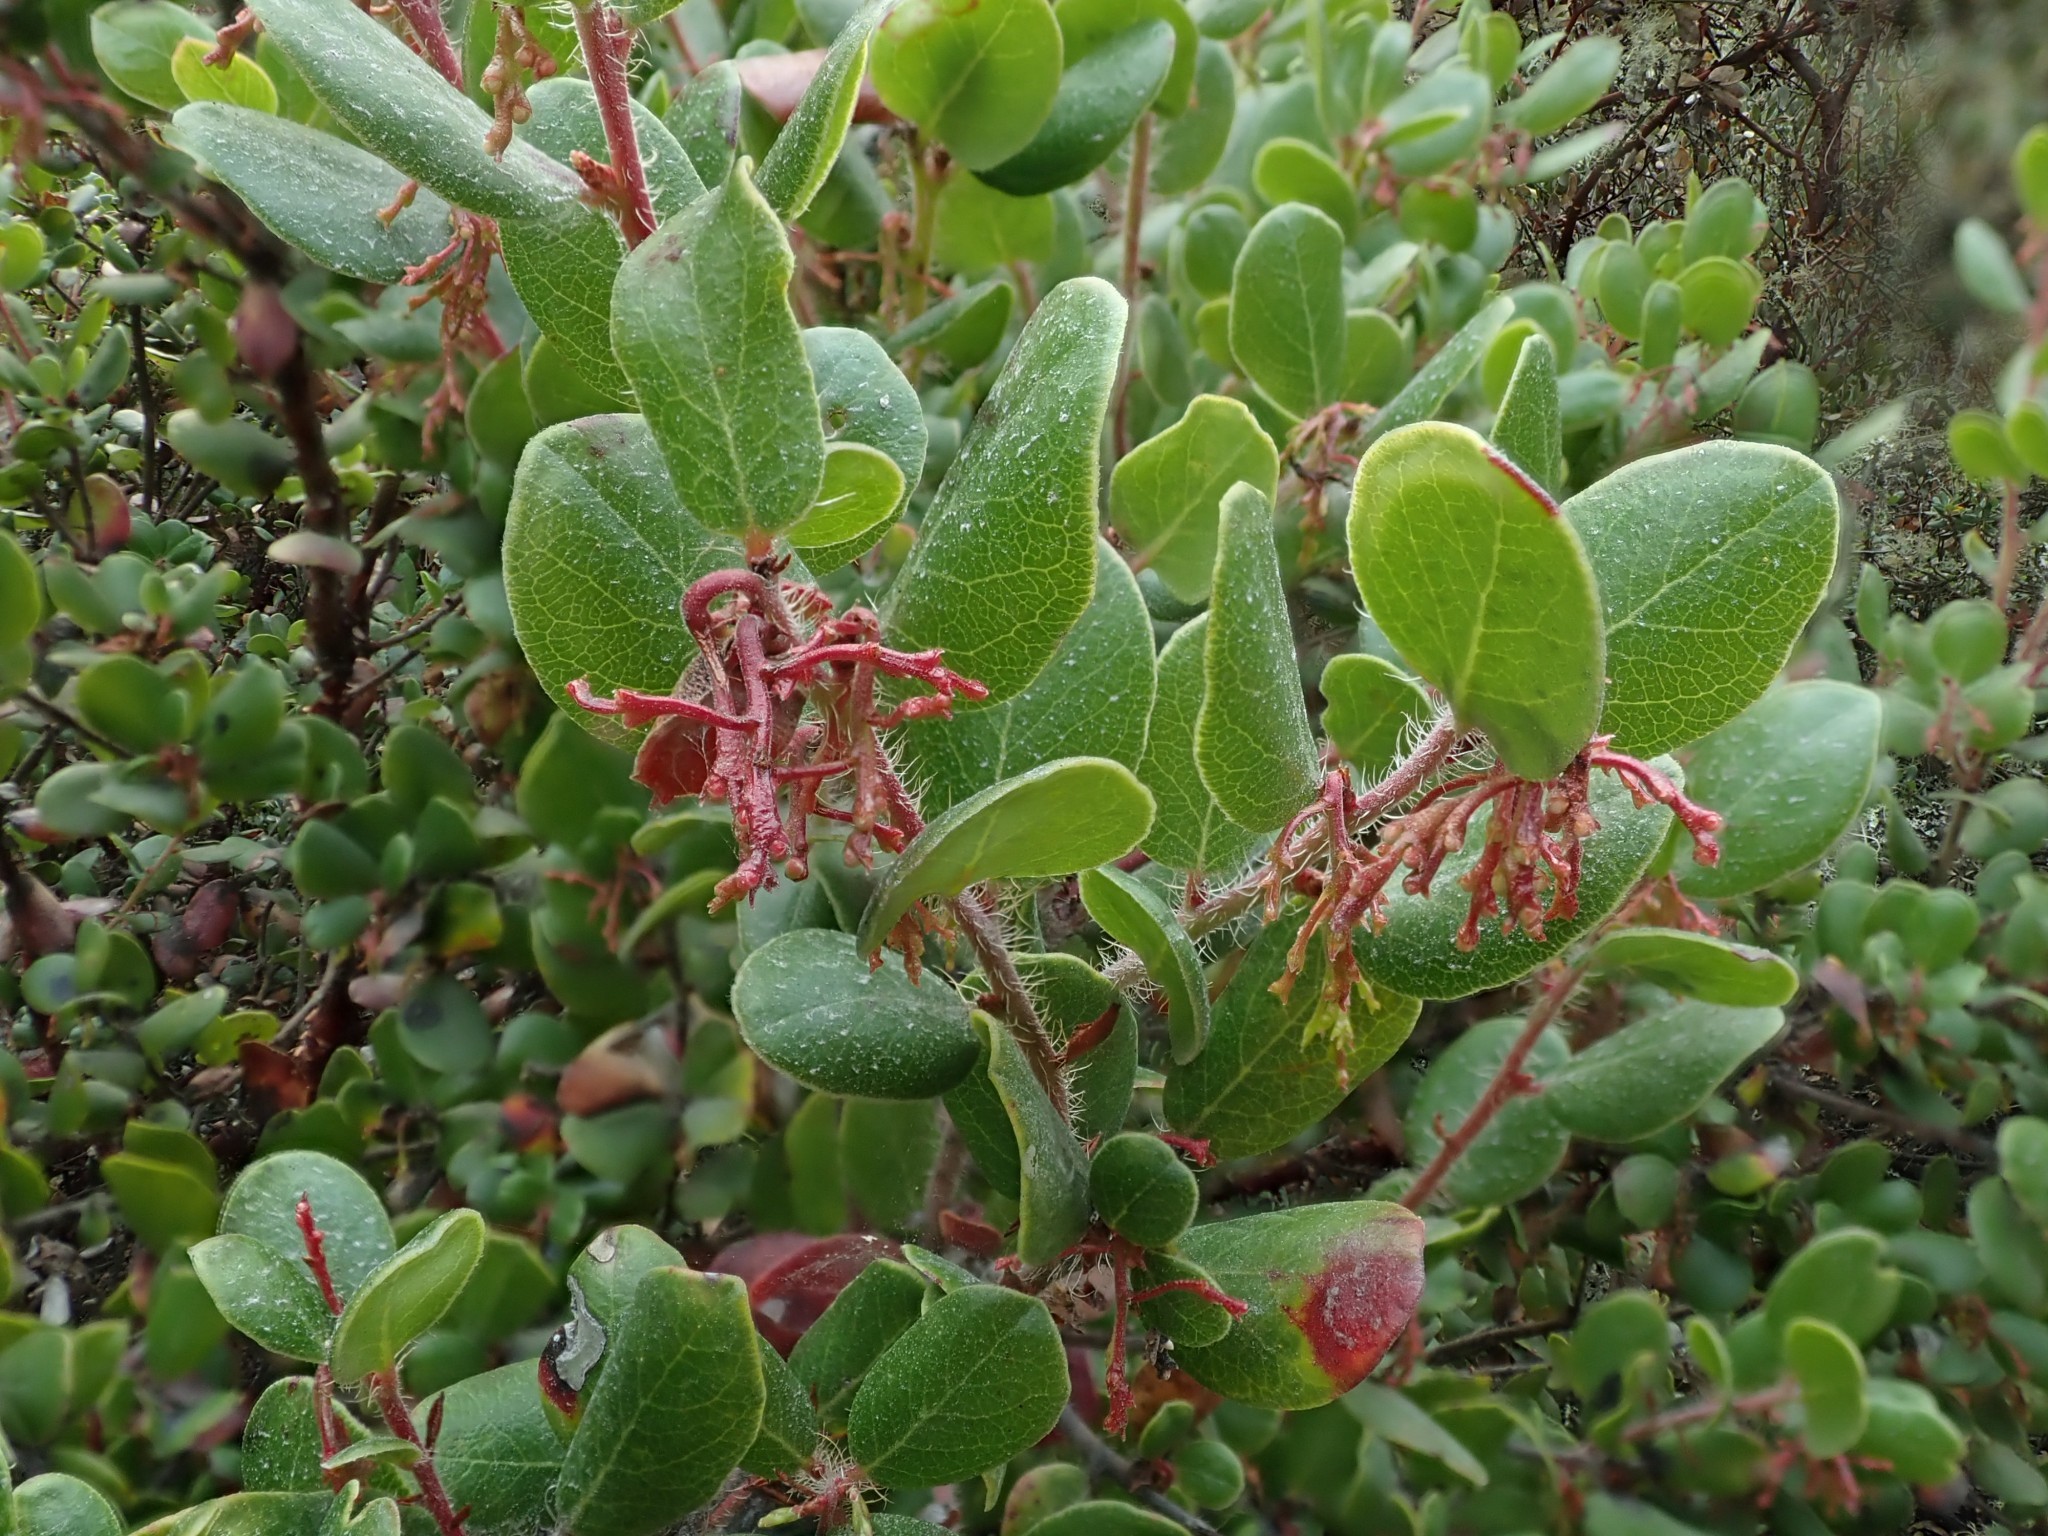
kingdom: Plantae
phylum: Tracheophyta
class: Magnoliopsida
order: Ericales
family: Ericaceae
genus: Arctostaphylos
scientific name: Arctostaphylos nummularia
